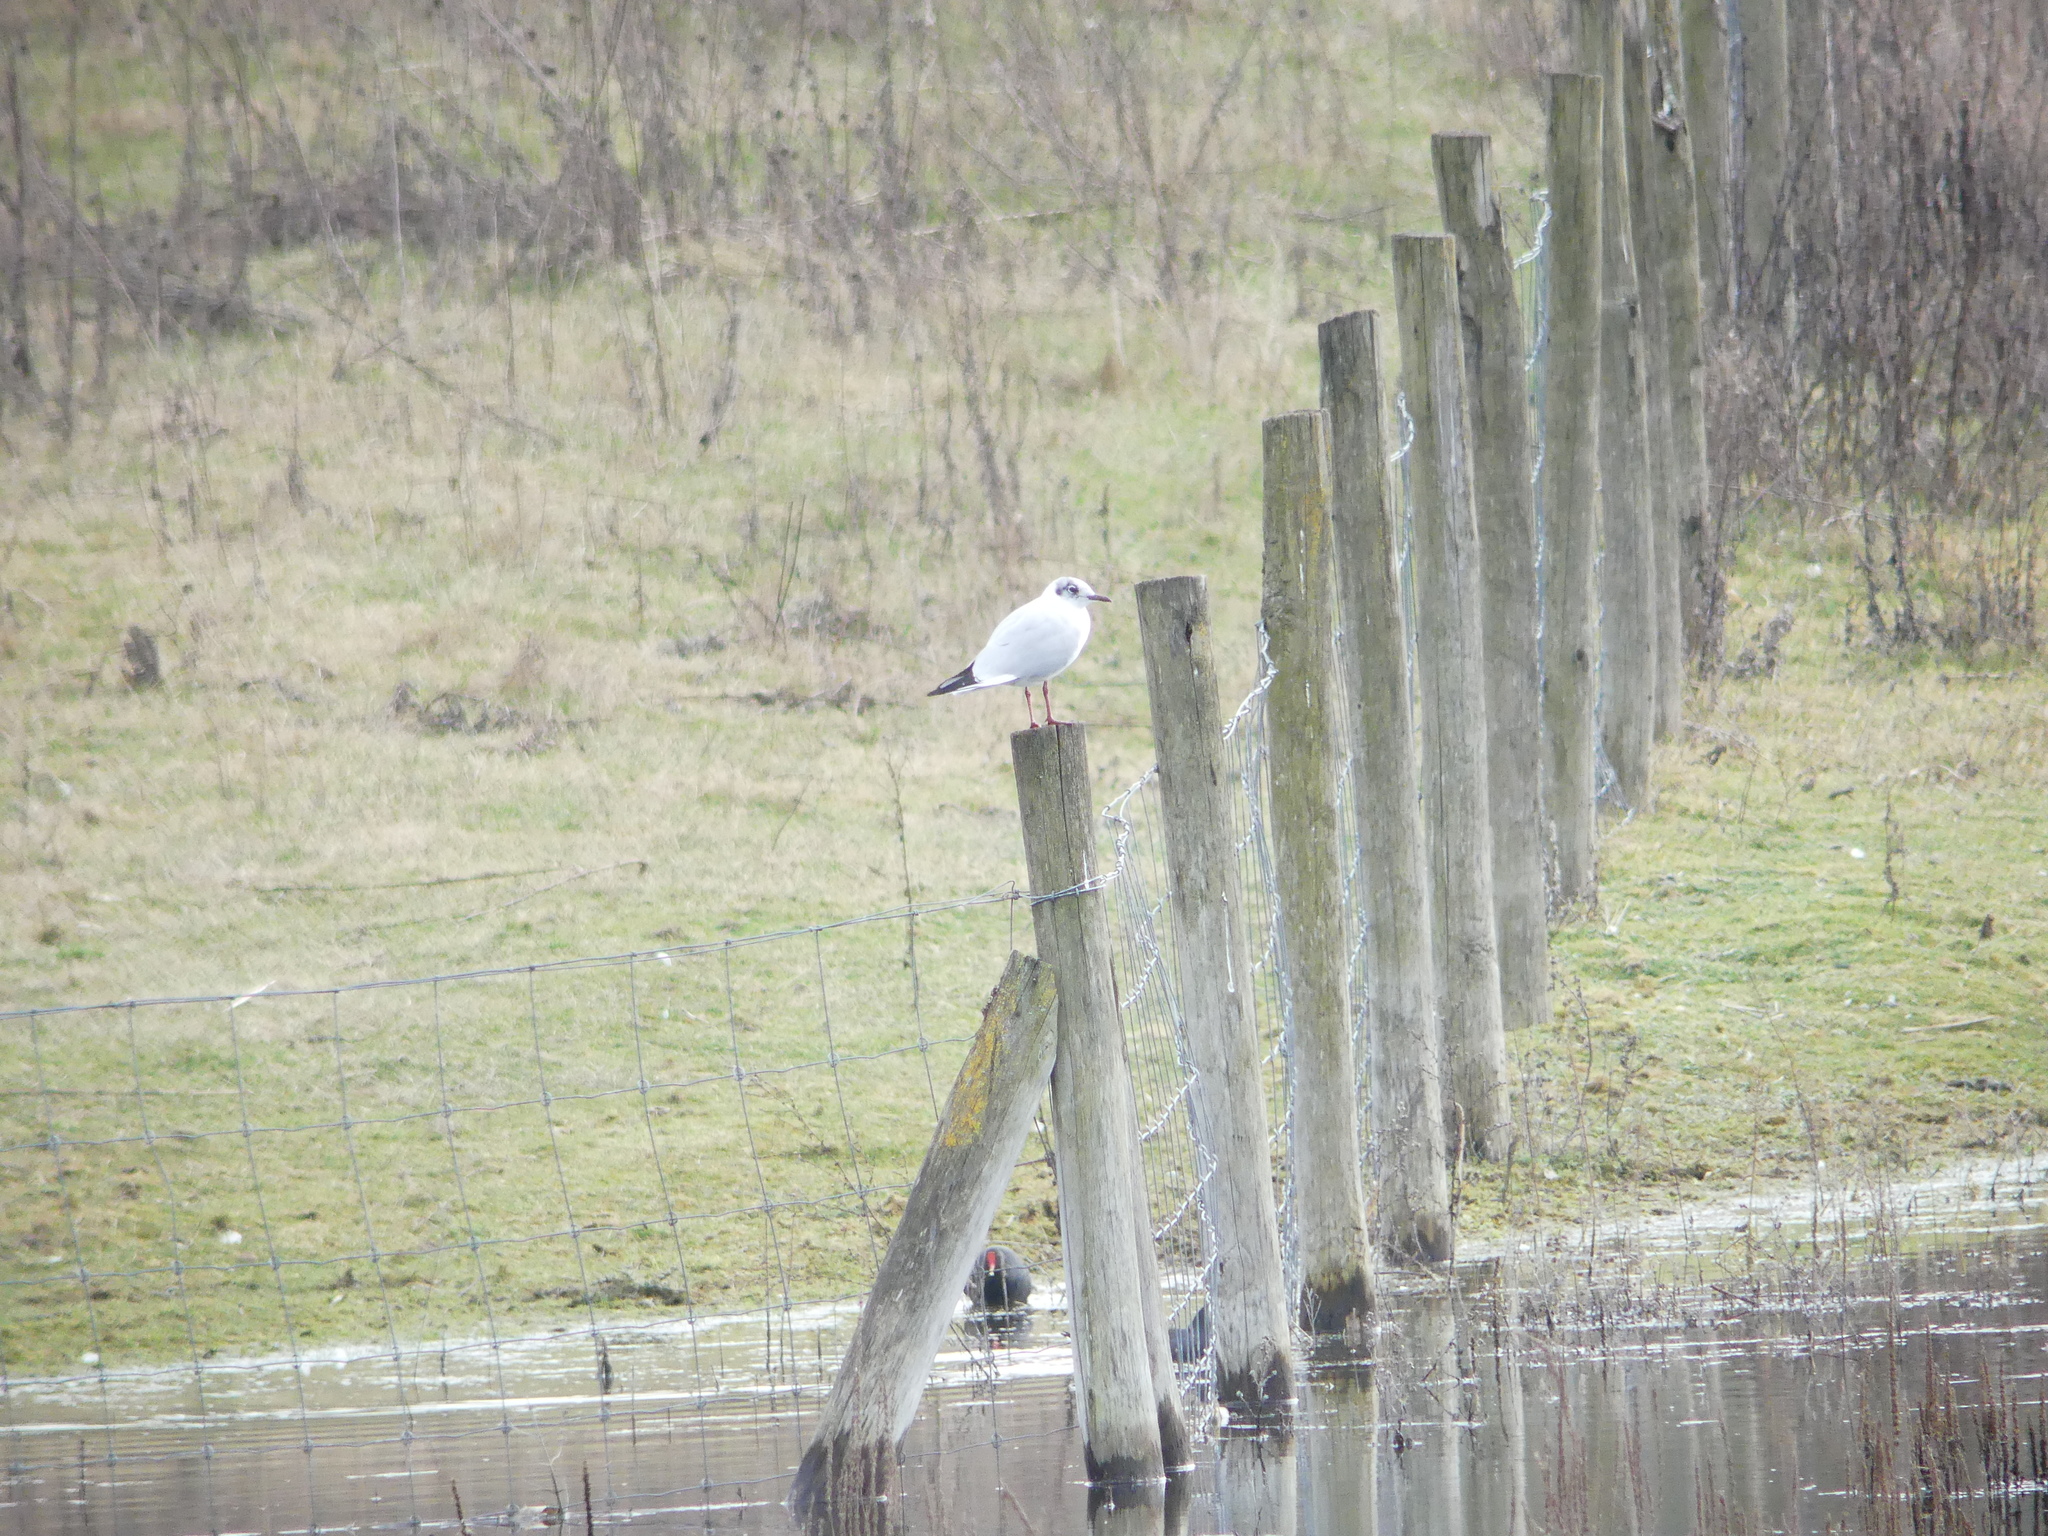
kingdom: Animalia
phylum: Chordata
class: Aves
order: Charadriiformes
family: Laridae
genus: Chroicocephalus
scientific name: Chroicocephalus ridibundus
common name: Black-headed gull
